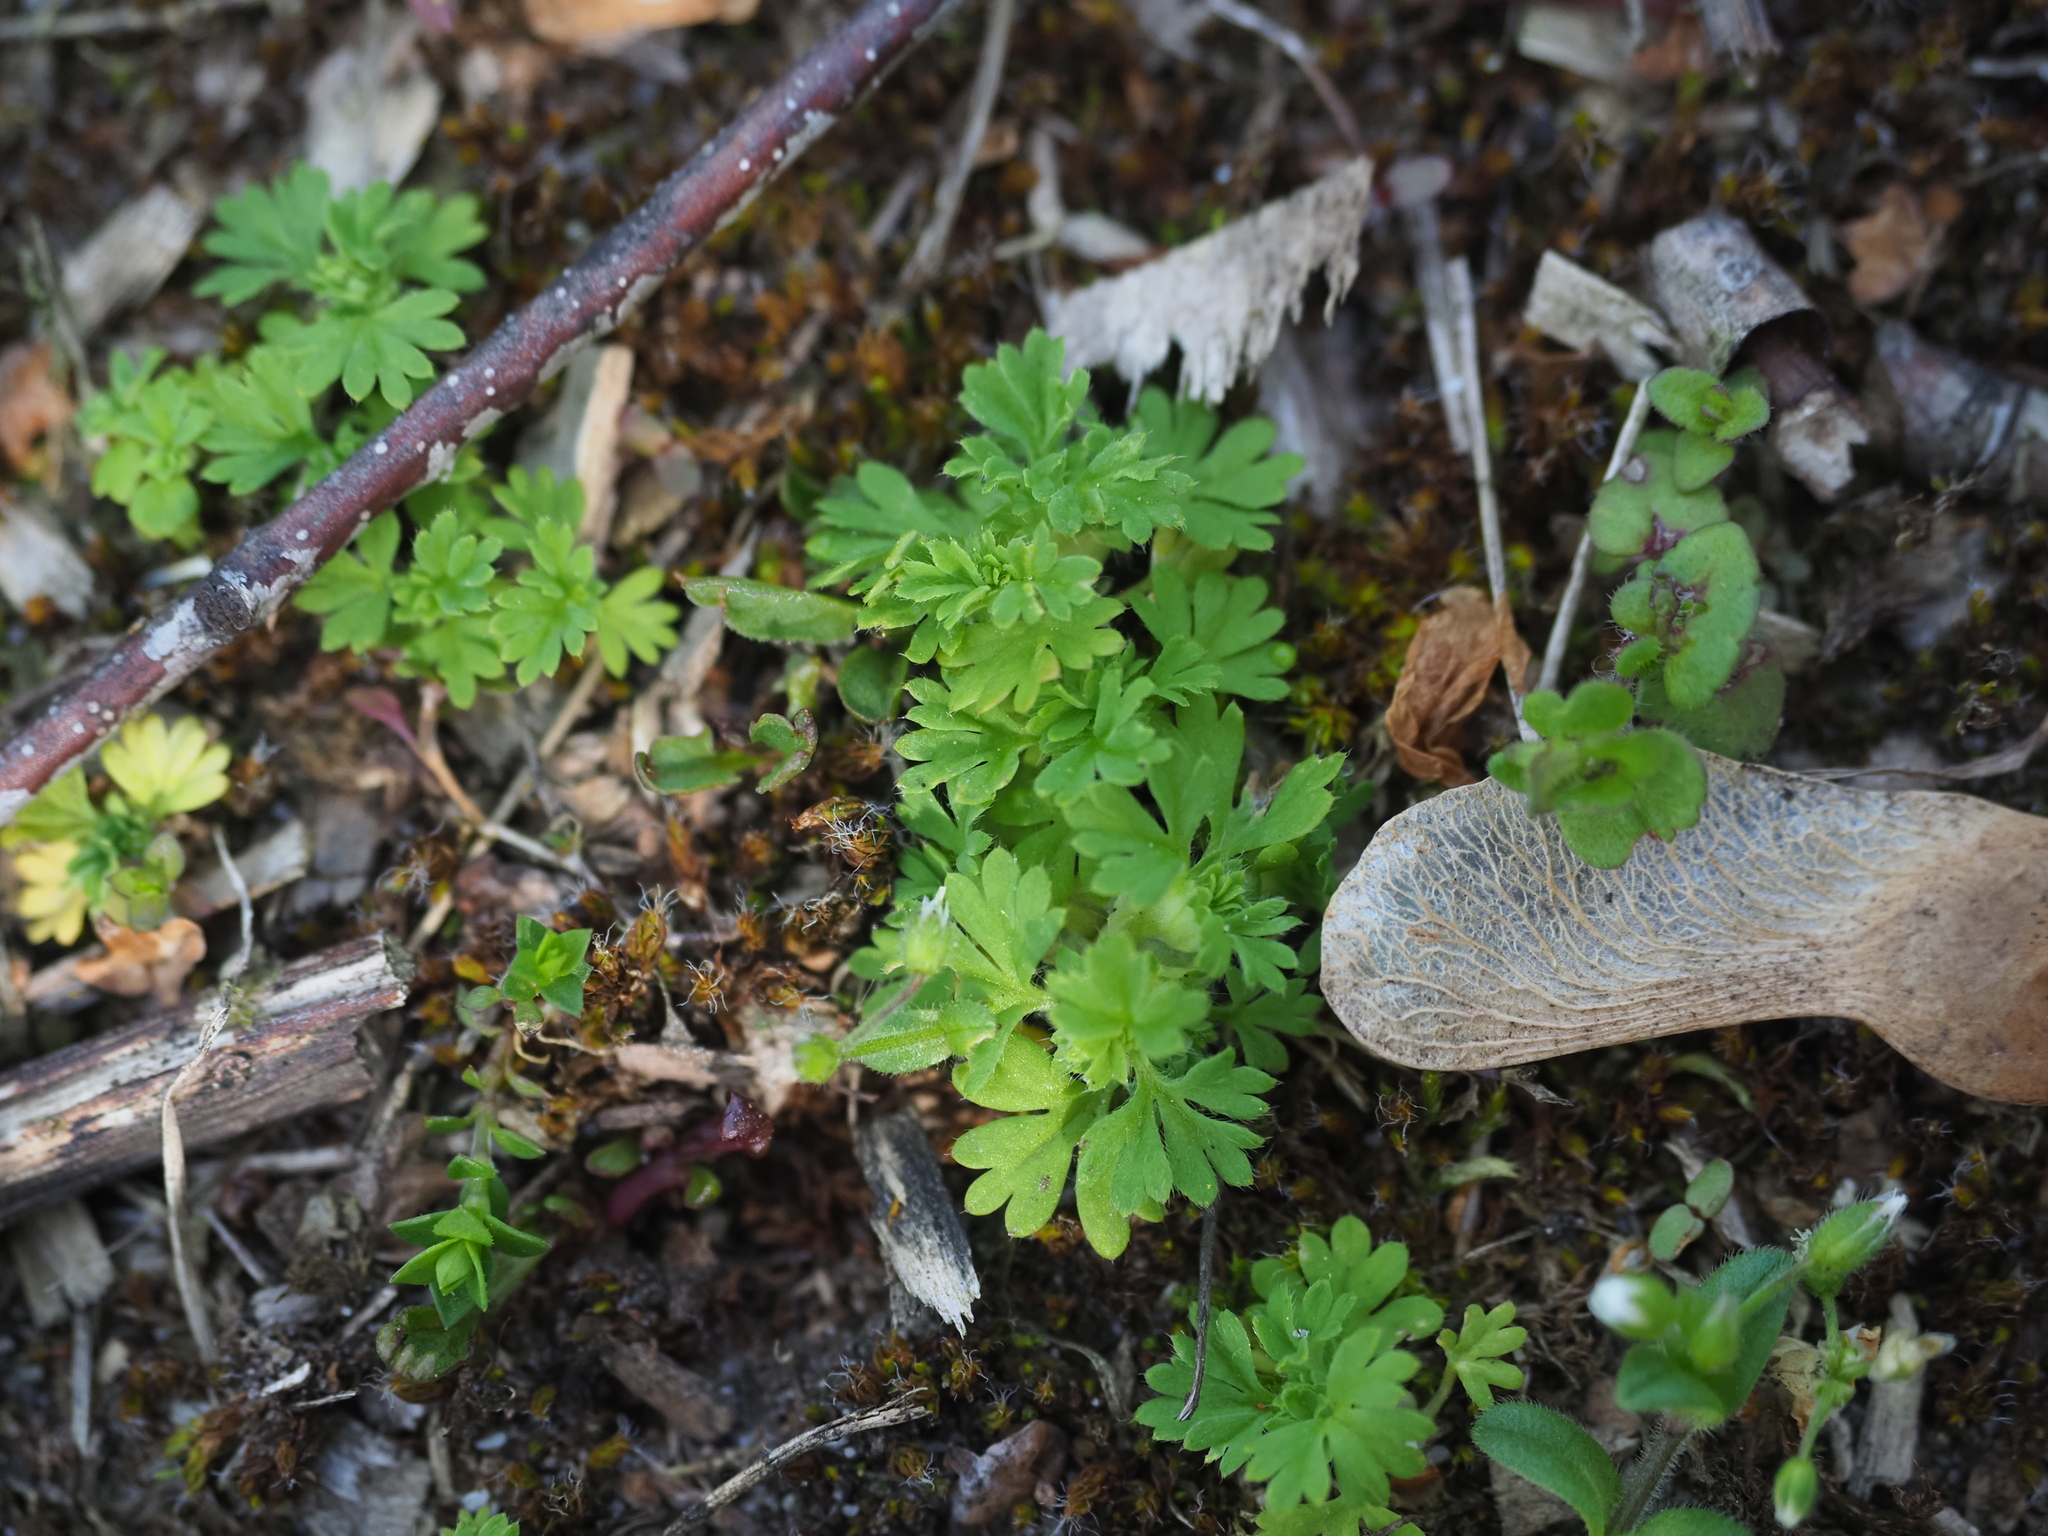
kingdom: Plantae
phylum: Tracheophyta
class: Magnoliopsida
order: Rosales
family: Rosaceae
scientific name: Rosaceae
